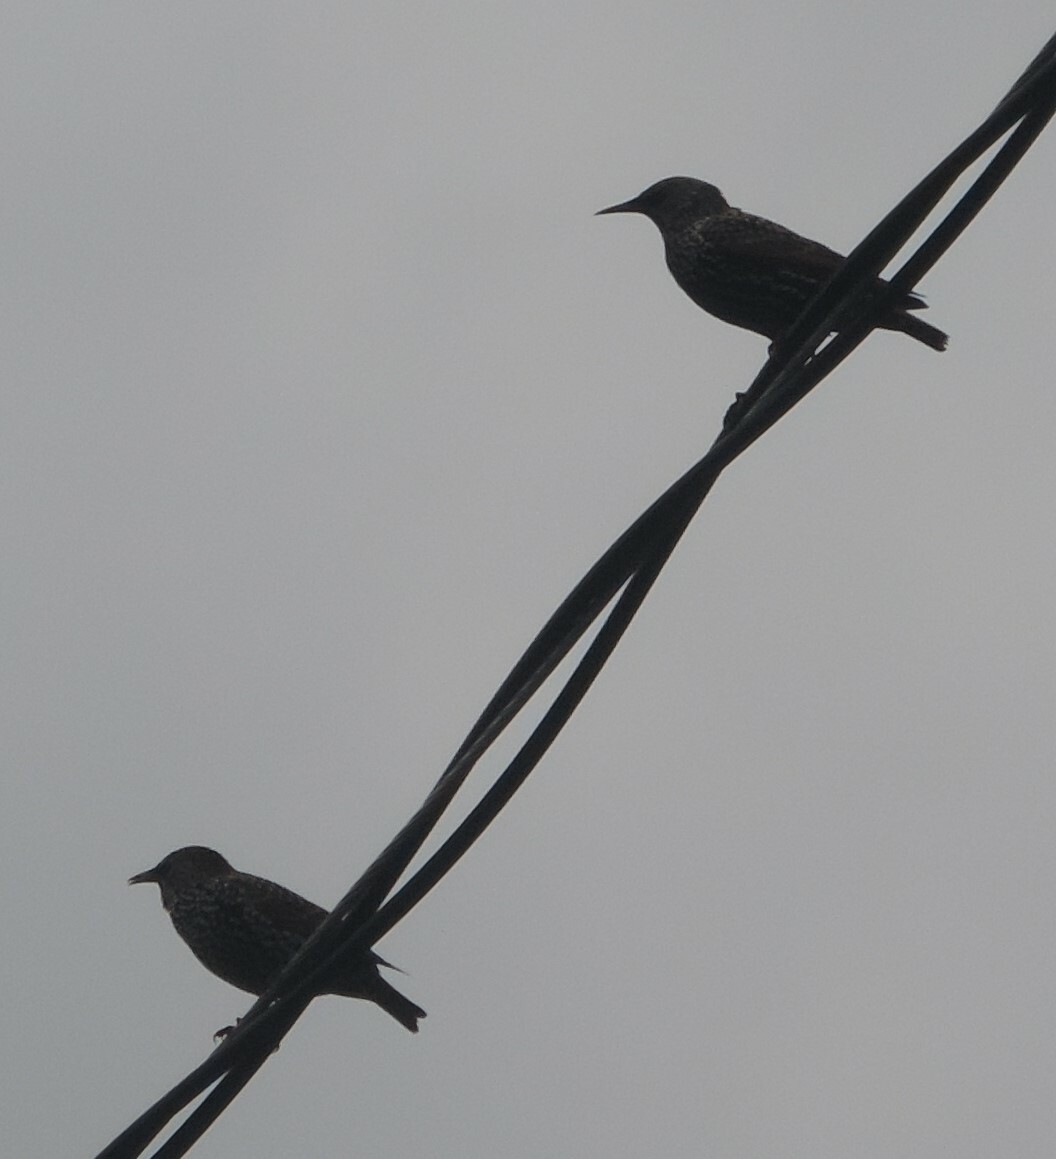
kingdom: Animalia
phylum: Chordata
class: Aves
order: Passeriformes
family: Sturnidae
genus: Sturnus
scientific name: Sturnus vulgaris
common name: Common starling
